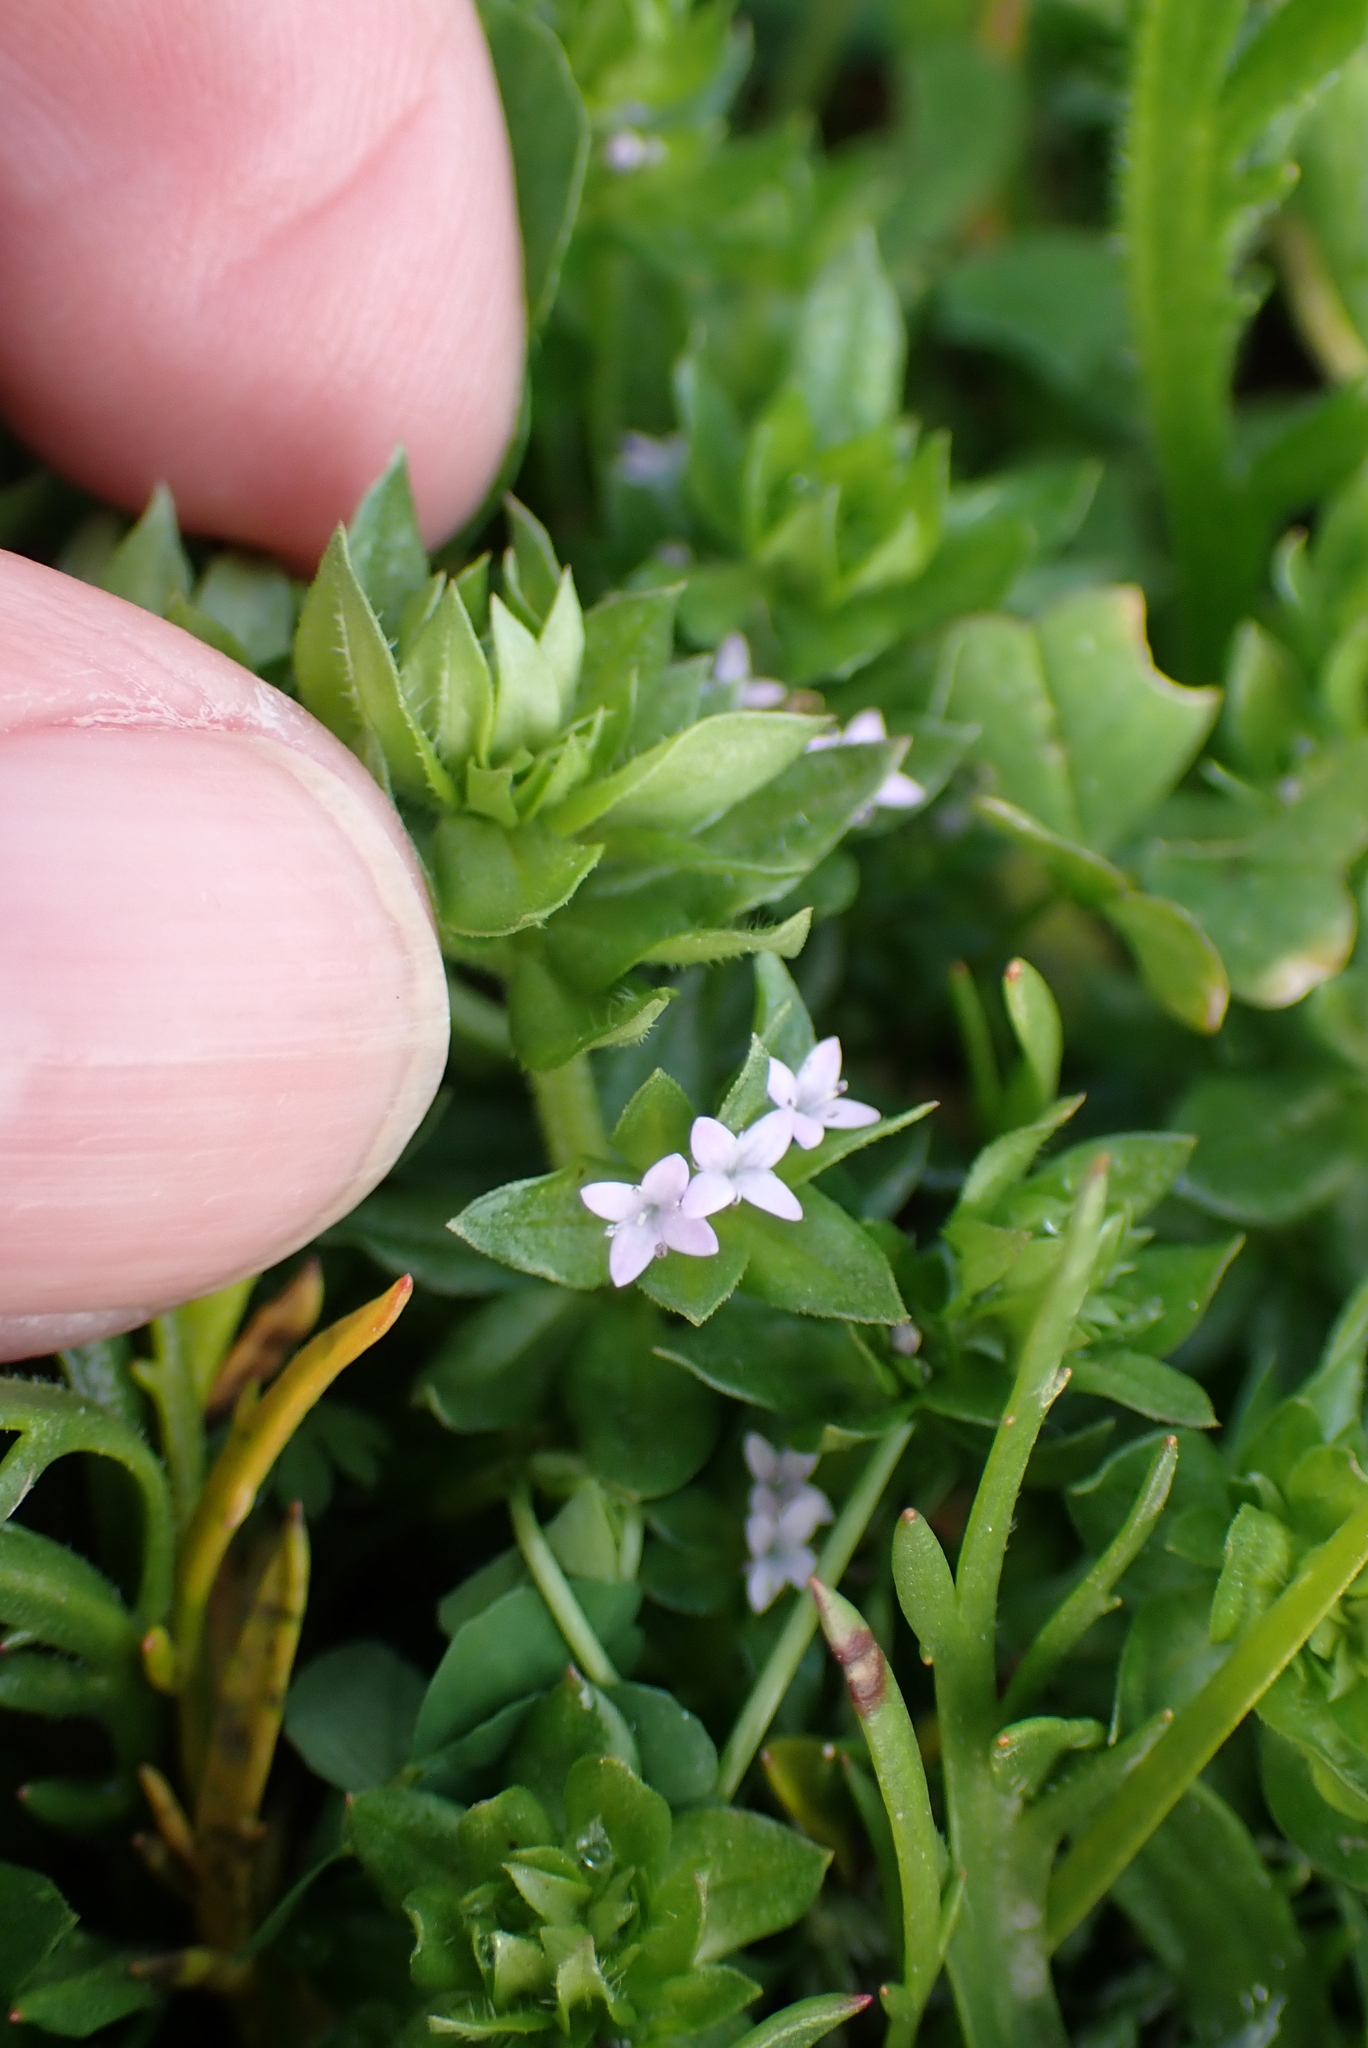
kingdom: Plantae
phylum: Tracheophyta
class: Magnoliopsida
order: Gentianales
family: Rubiaceae
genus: Sherardia
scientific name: Sherardia arvensis
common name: Field madder
